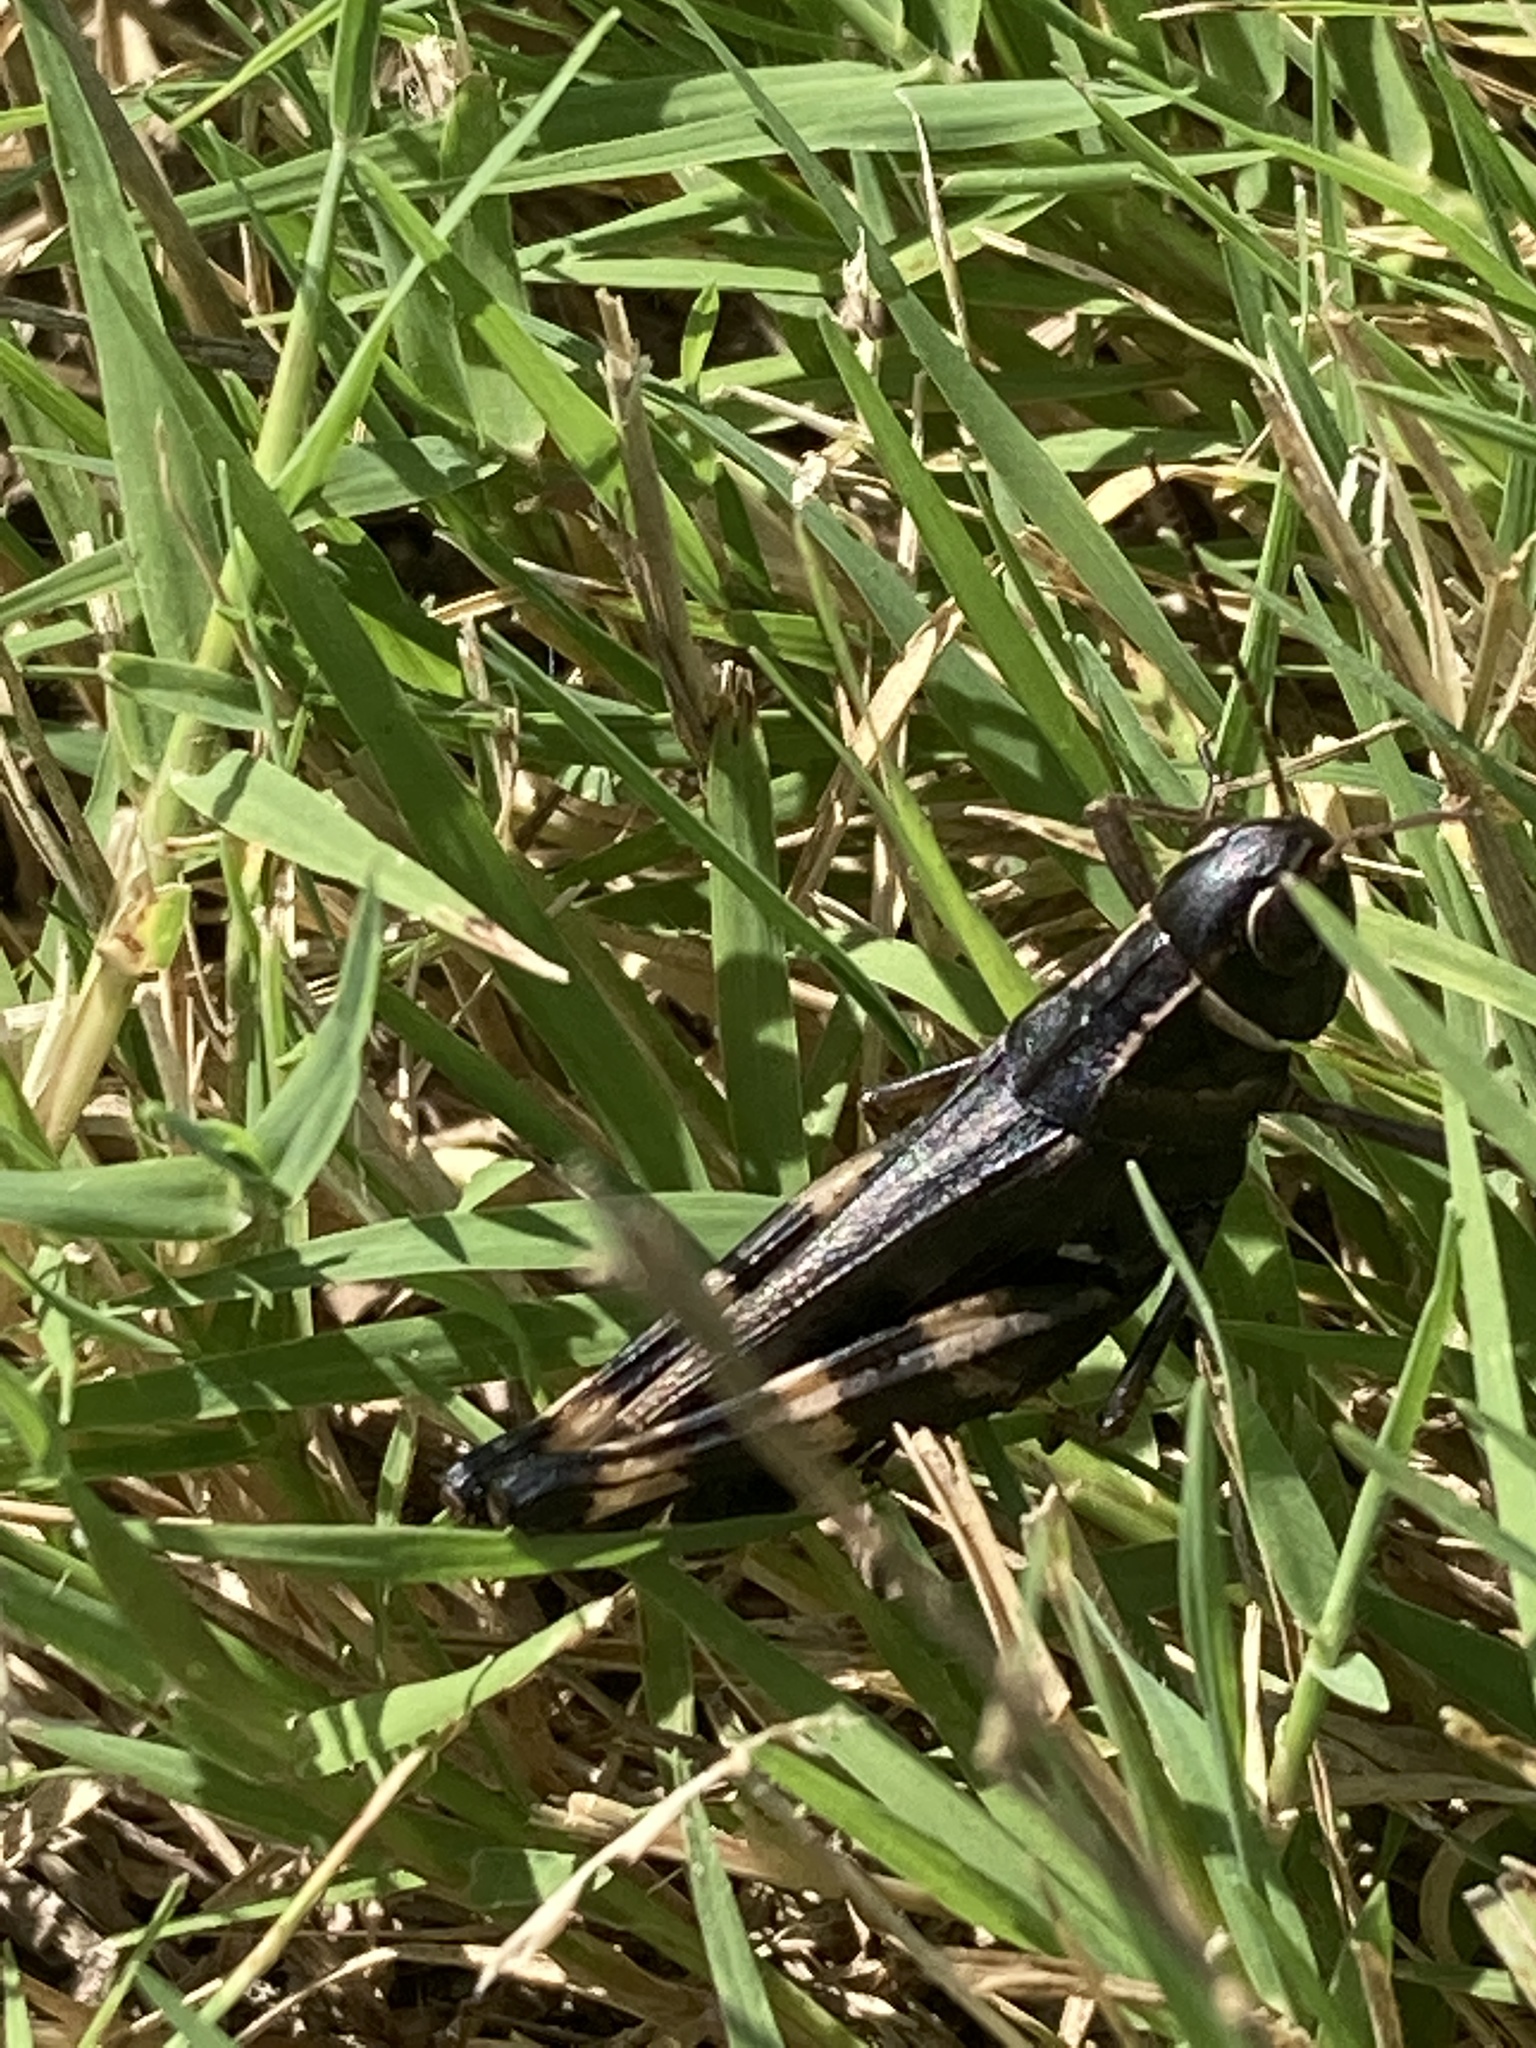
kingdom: Animalia
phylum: Arthropoda
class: Insecta
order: Orthoptera
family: Acrididae
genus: Boopedon
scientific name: Boopedon gracile
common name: Graceful range grasshopper
